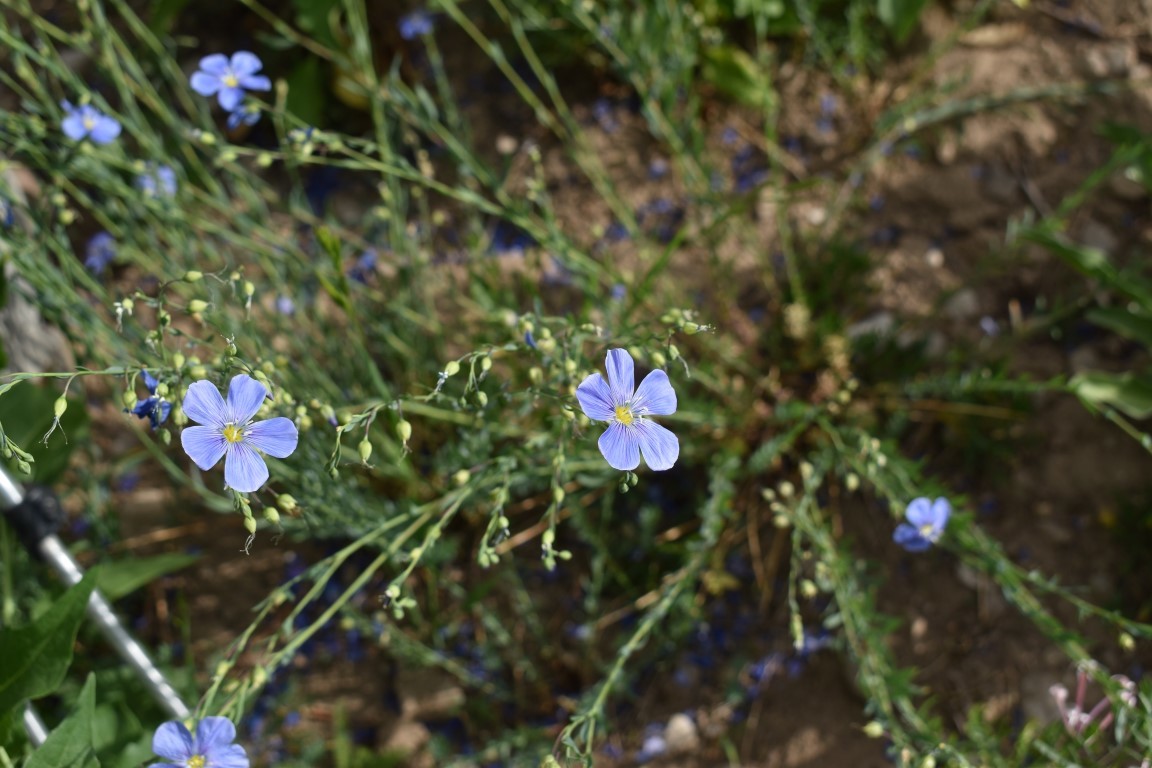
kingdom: Plantae
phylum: Tracheophyta
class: Magnoliopsida
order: Malpighiales
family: Linaceae
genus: Linum
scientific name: Linum lewisii
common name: Prairie flax
